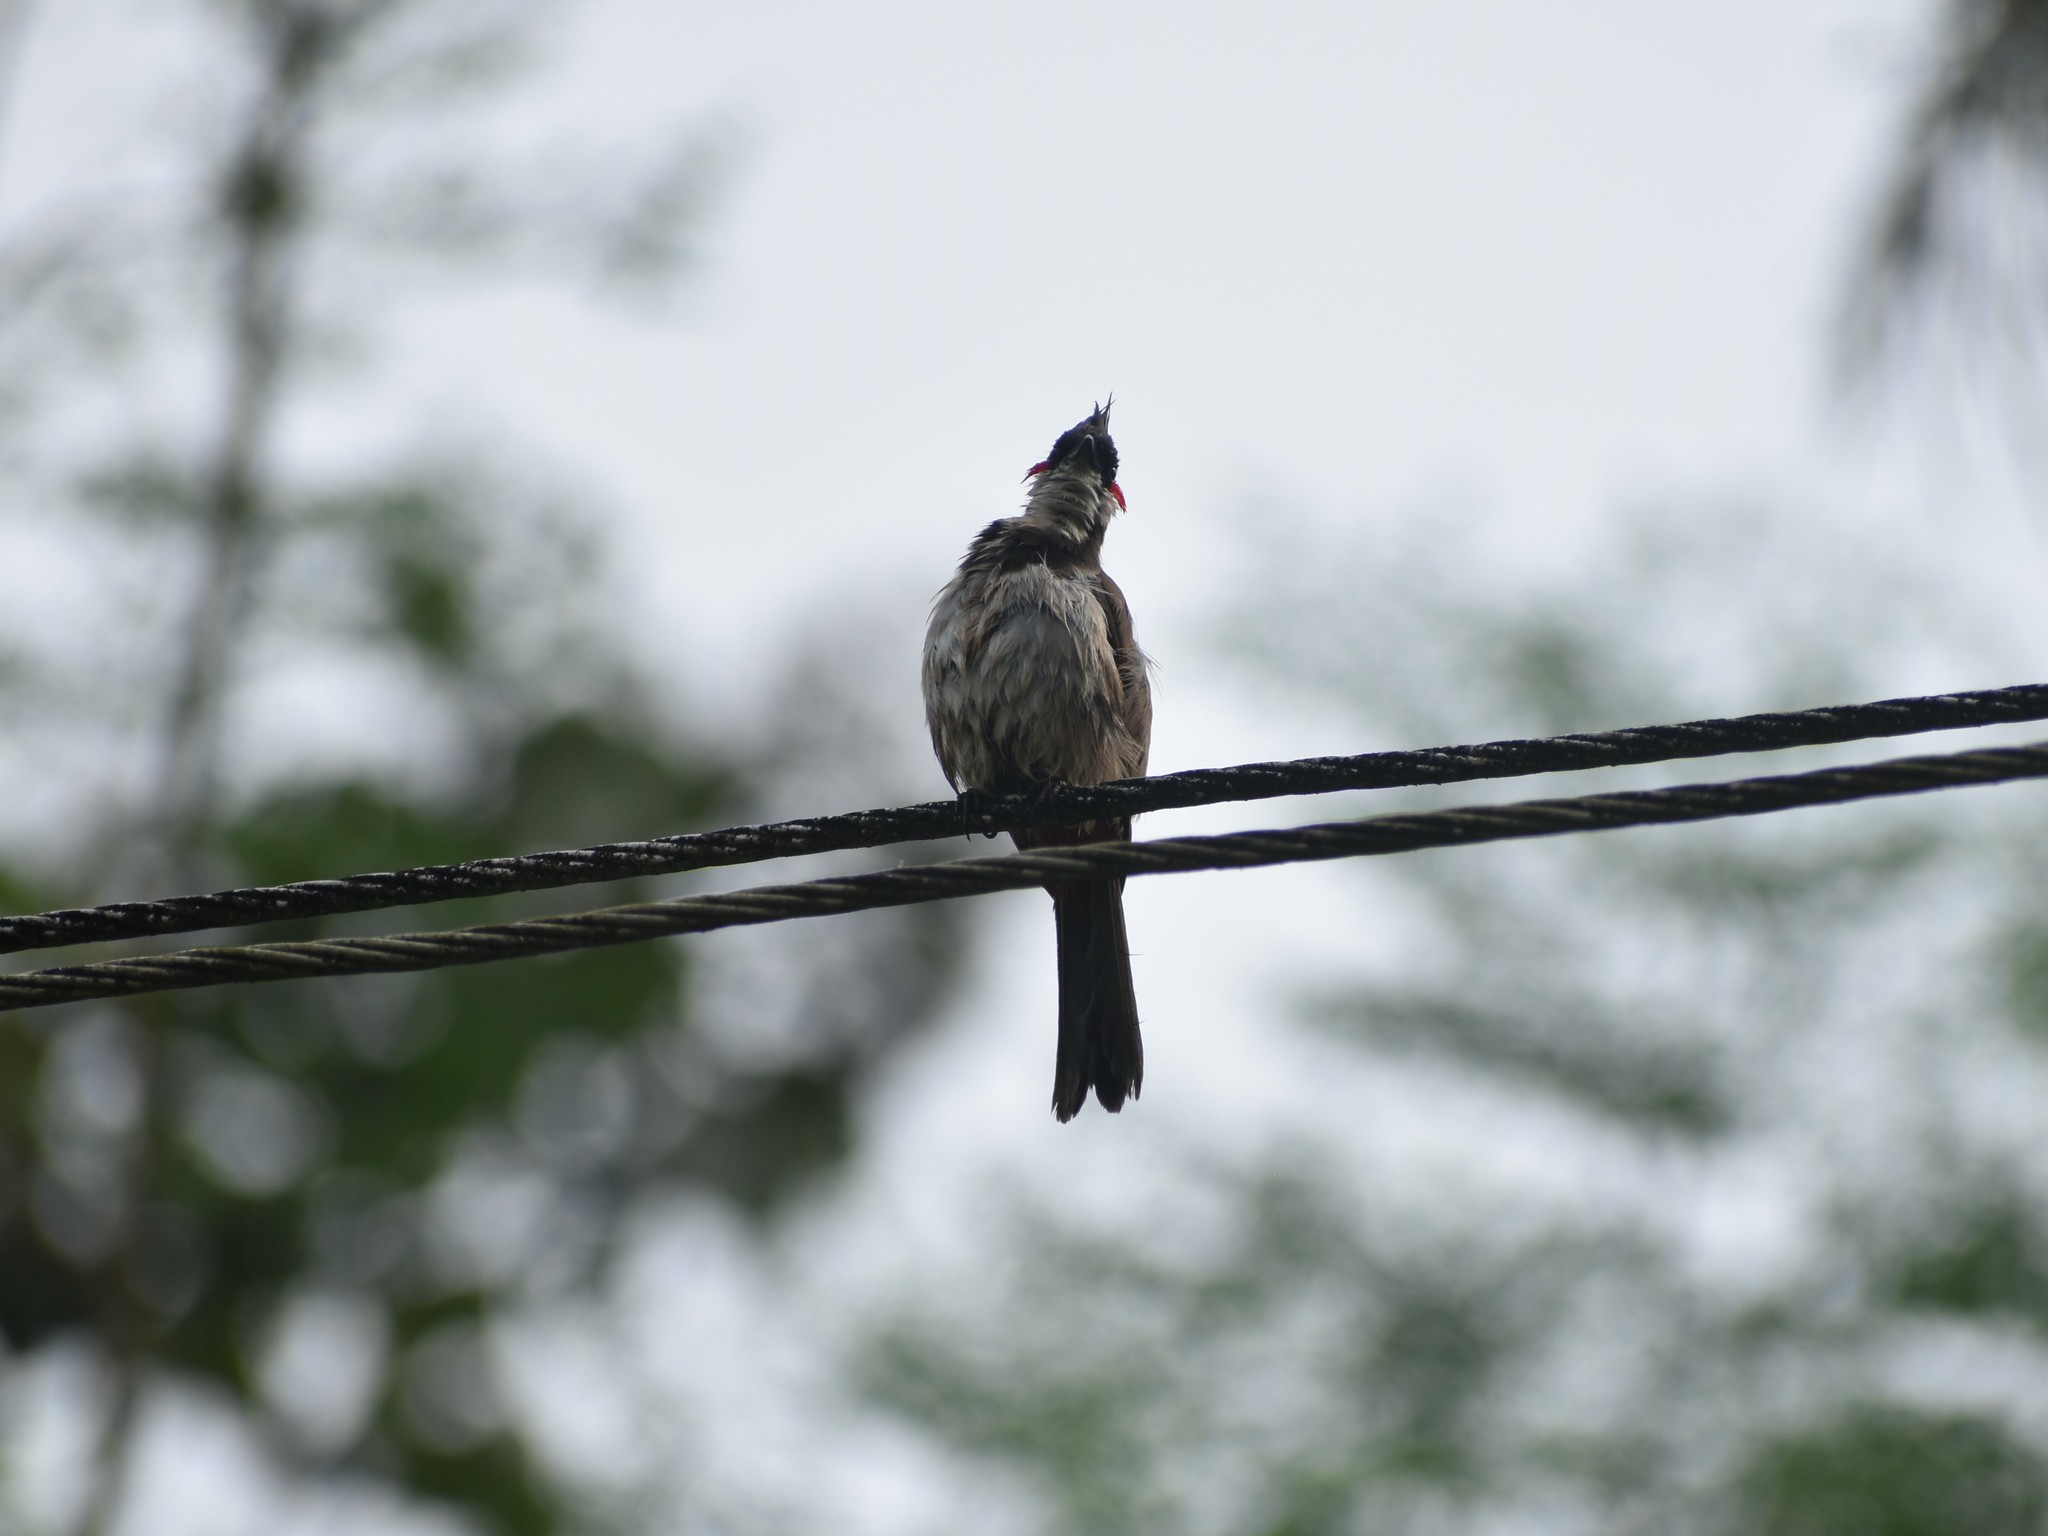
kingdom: Animalia
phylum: Chordata
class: Aves
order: Passeriformes
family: Pycnonotidae
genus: Pycnonotus
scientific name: Pycnonotus jocosus
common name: Red-whiskered bulbul
